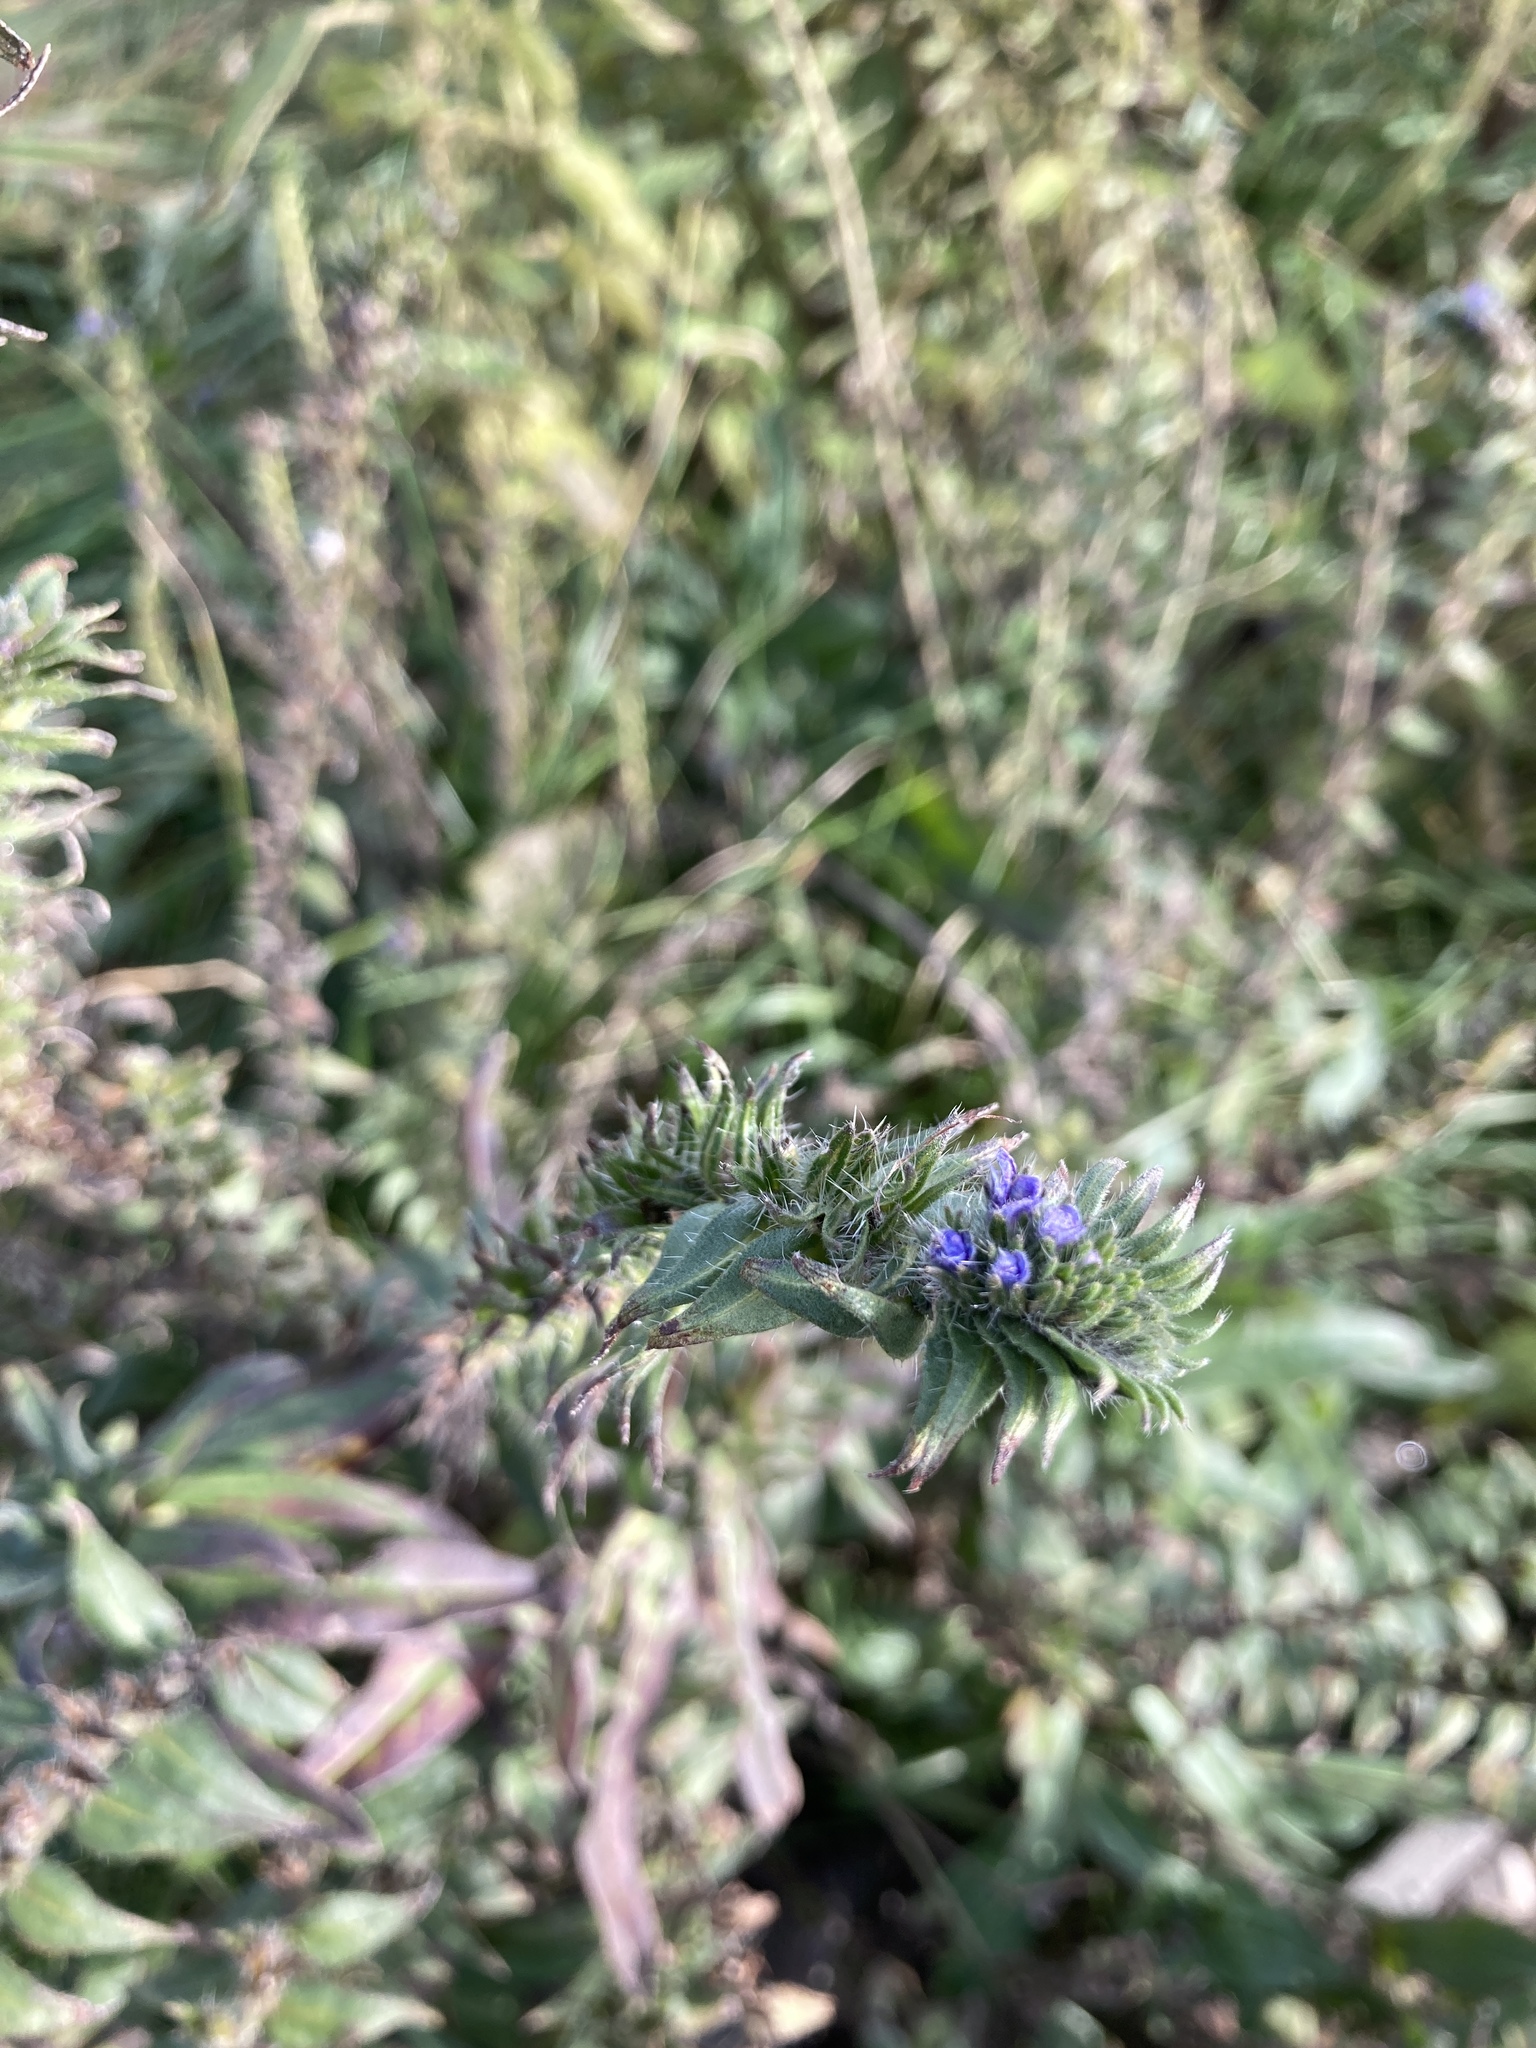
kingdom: Plantae
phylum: Tracheophyta
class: Magnoliopsida
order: Boraginales
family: Boraginaceae
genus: Echium
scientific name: Echium vulgare
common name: Common viper's bugloss
